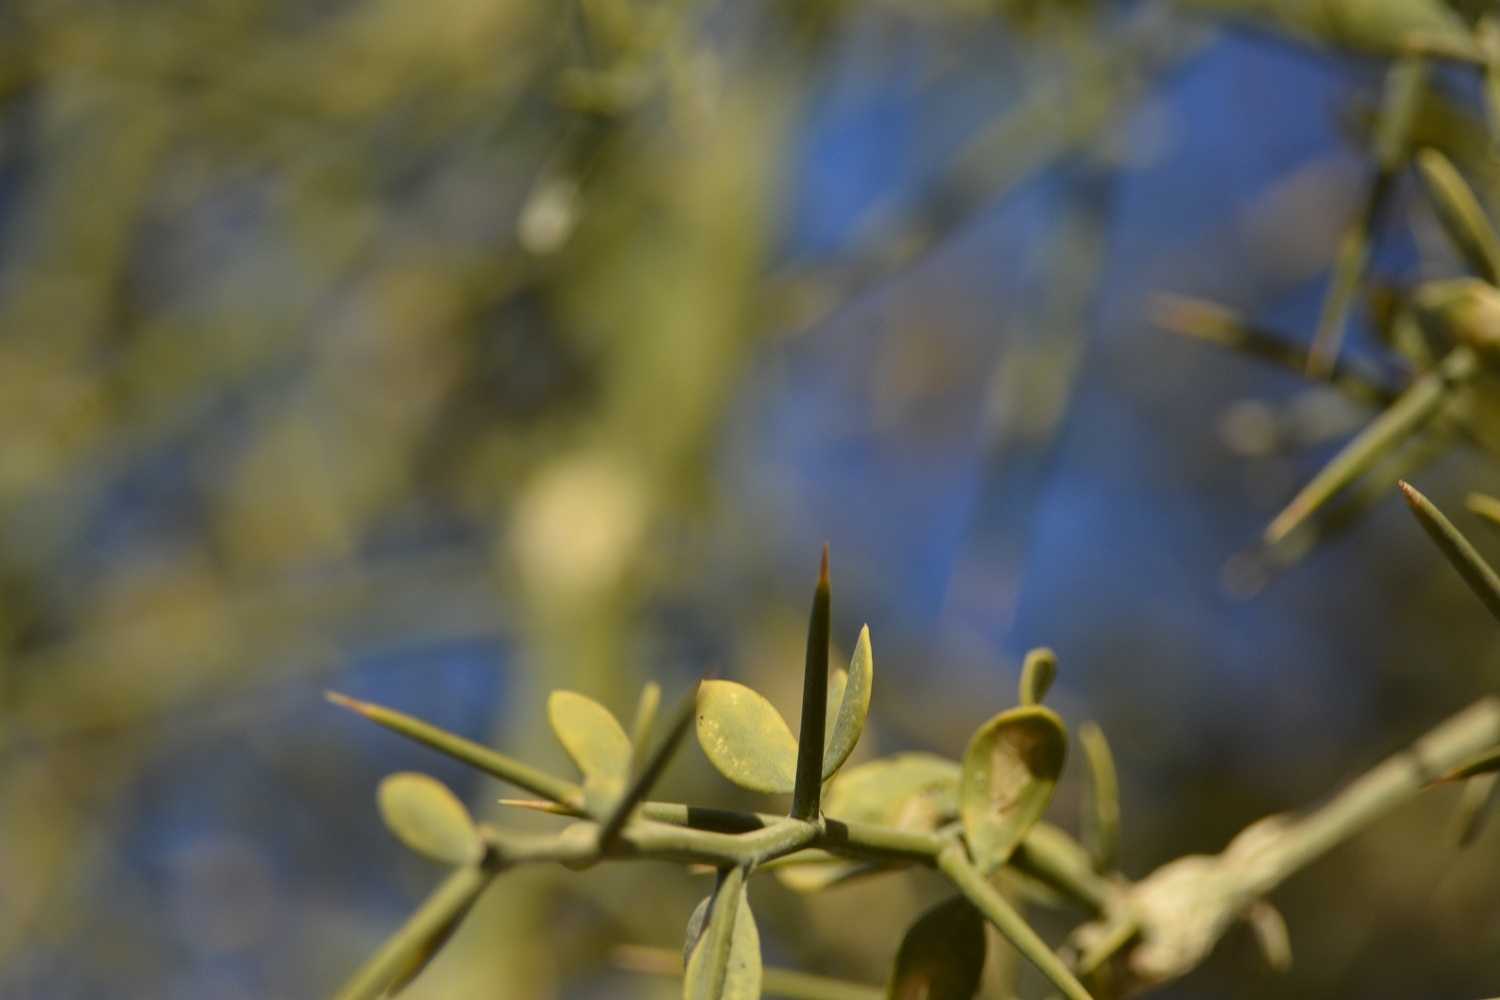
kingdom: Plantae
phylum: Tracheophyta
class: Magnoliopsida
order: Zygophyllales
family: Zygophyllaceae
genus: Balanites
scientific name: Balanites aegyptiaca
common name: Balanites
